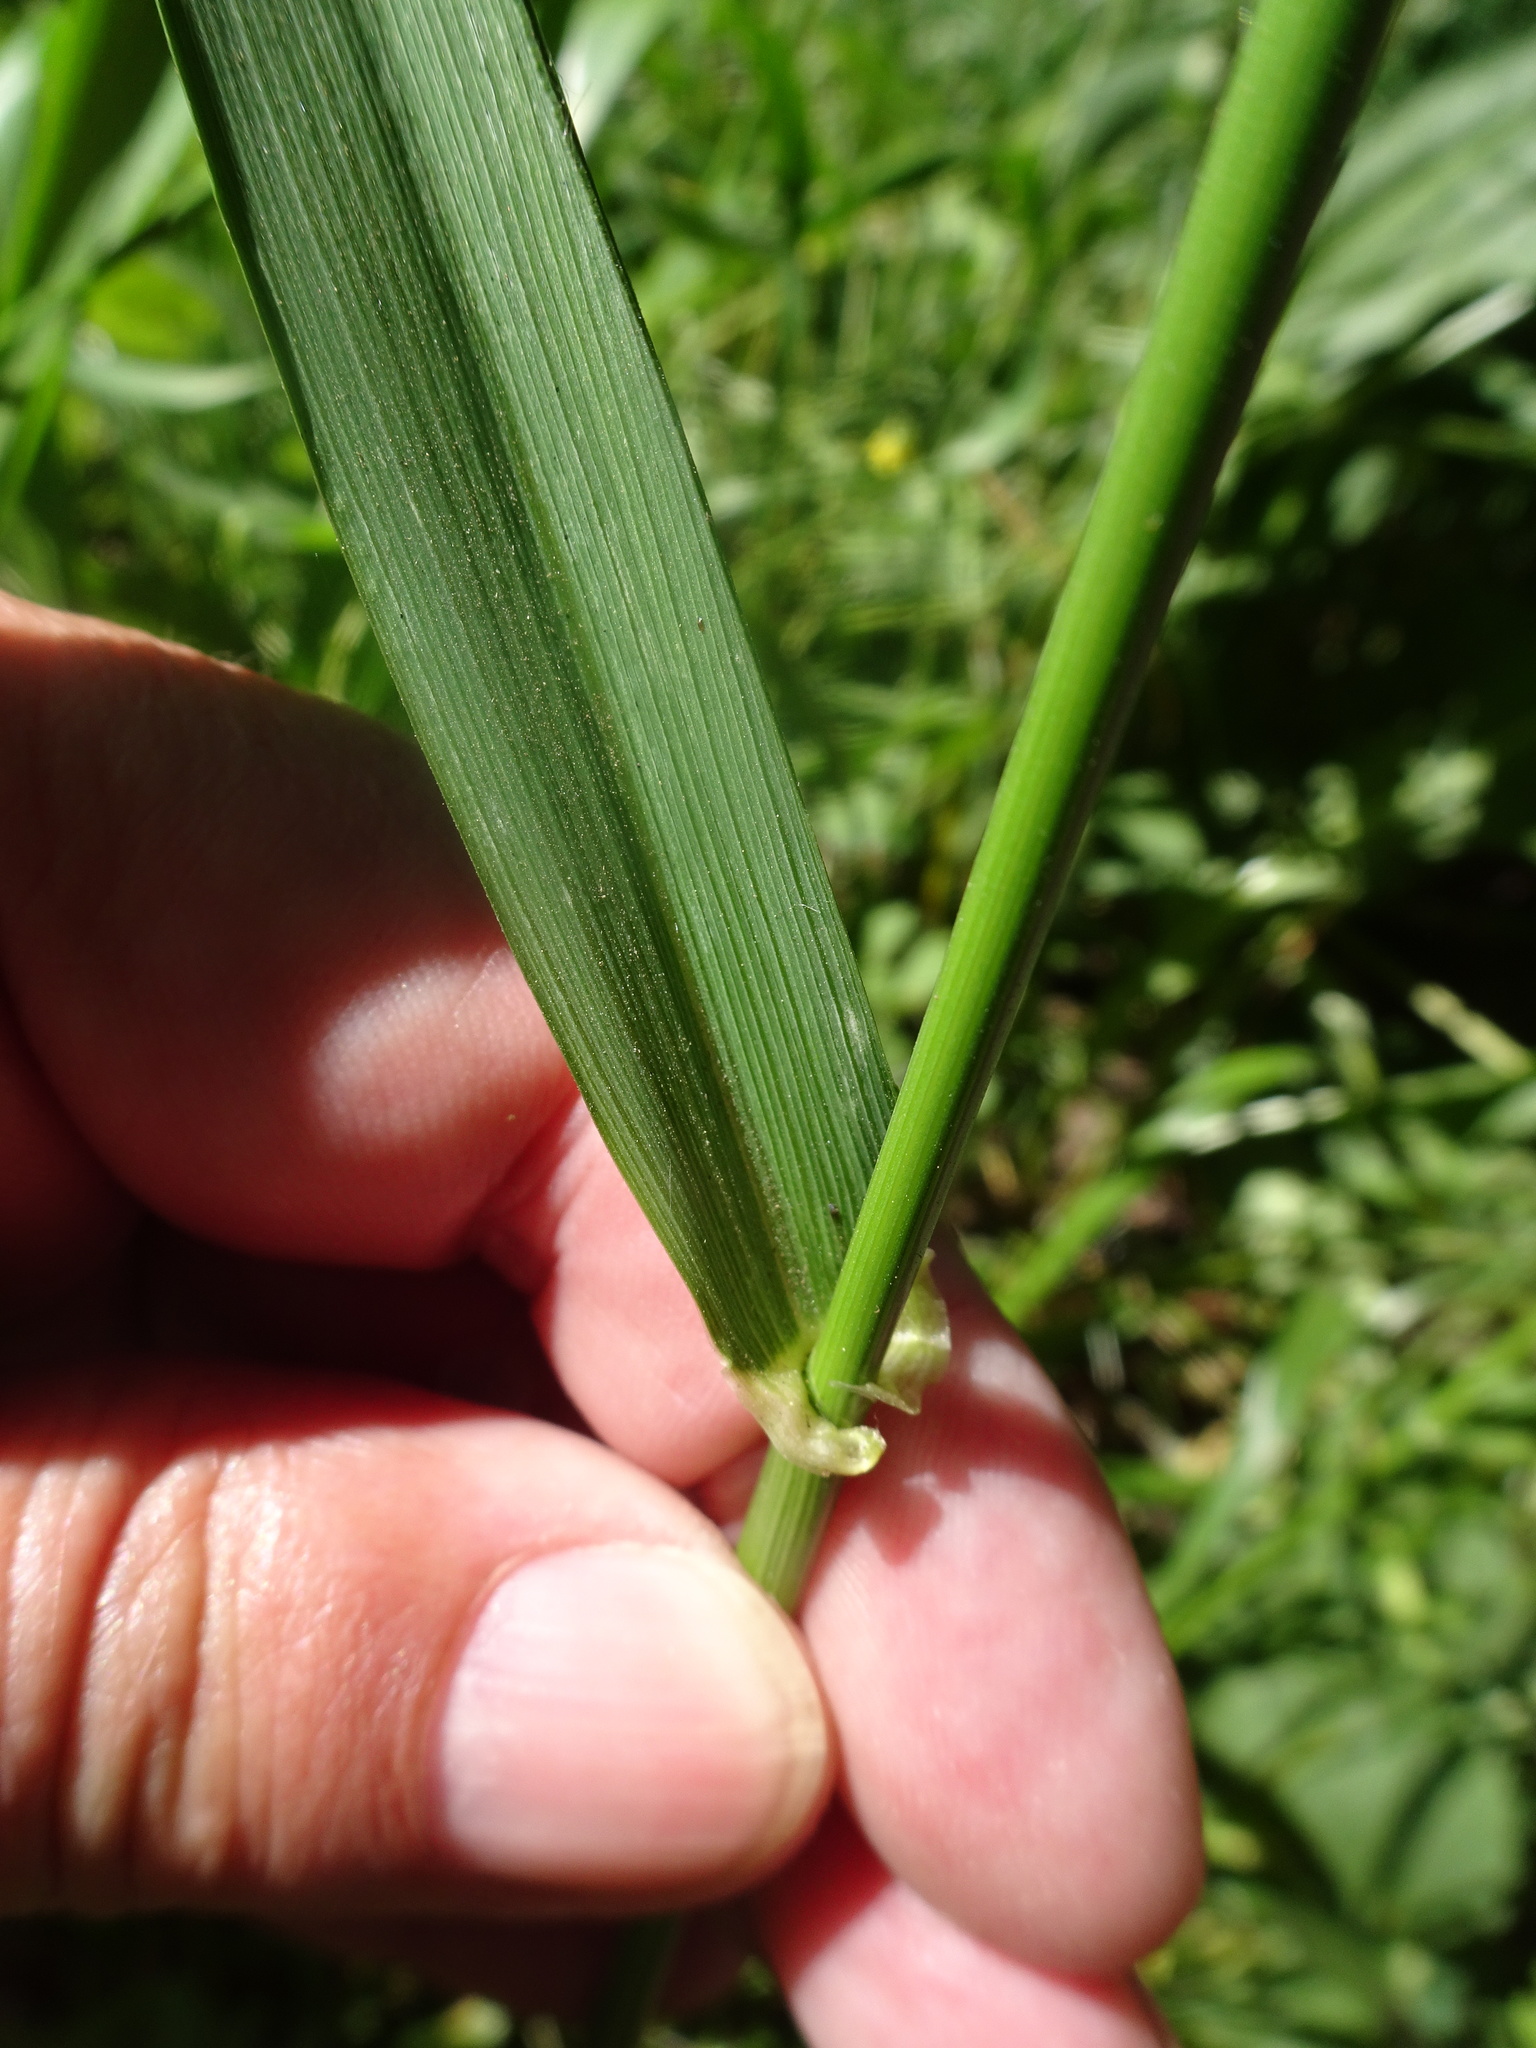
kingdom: Plantae
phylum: Tracheophyta
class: Liliopsida
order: Poales
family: Poaceae
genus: Lolium
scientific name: Lolium giganteum
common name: Giant fescue
